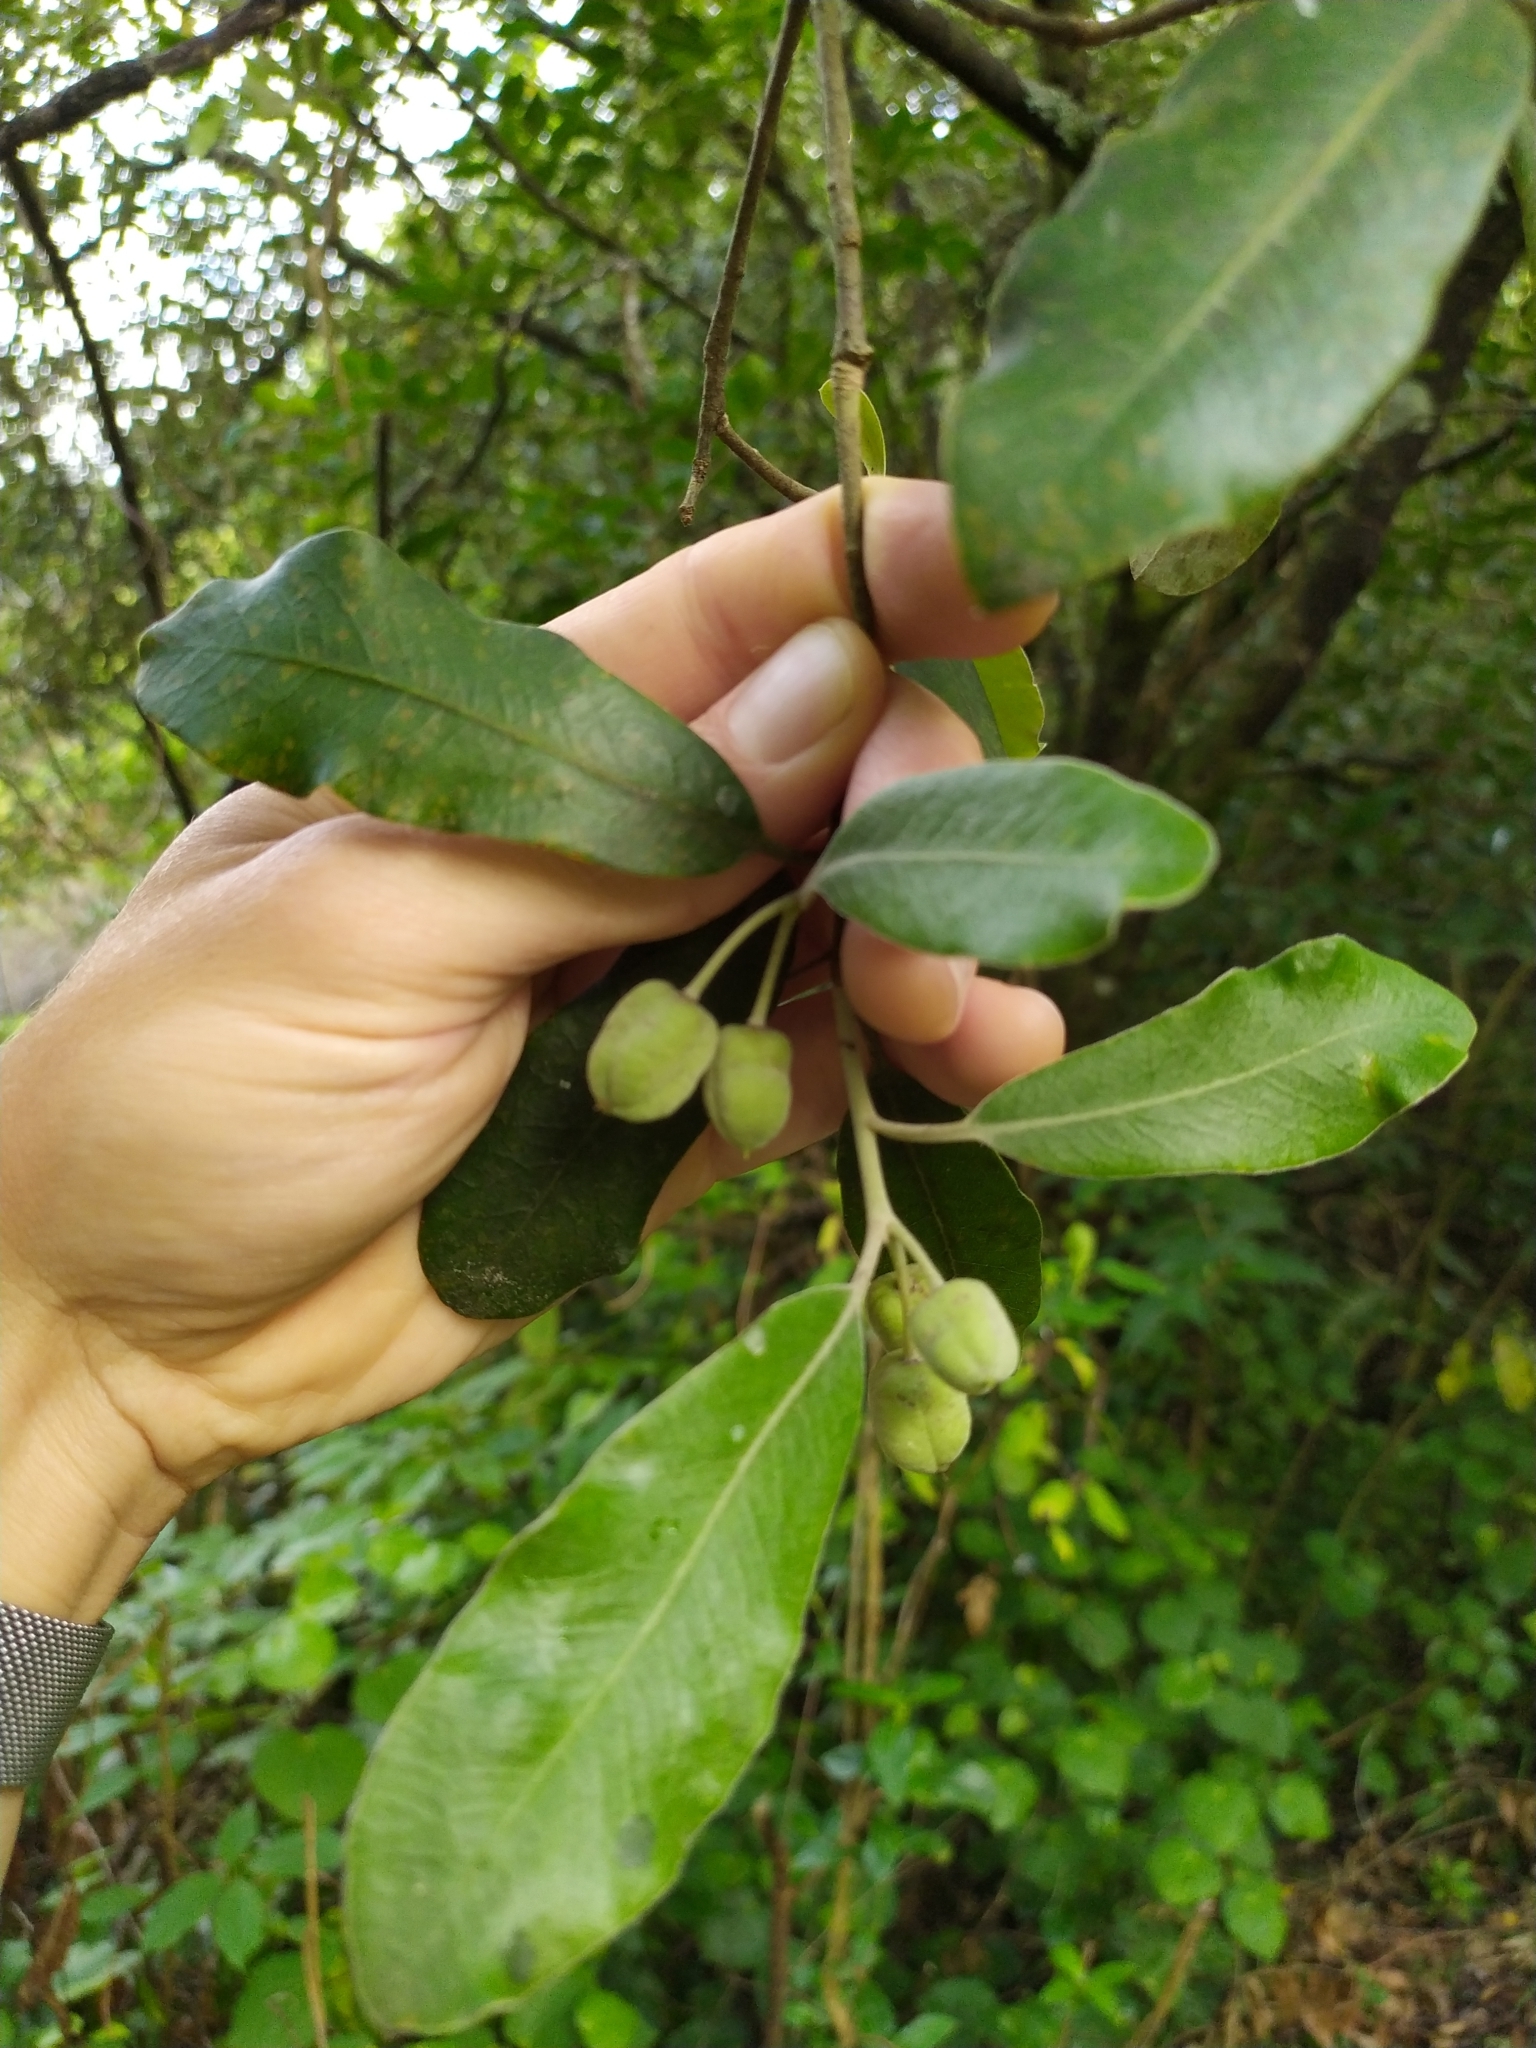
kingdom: Plantae
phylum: Tracheophyta
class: Magnoliopsida
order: Apiales
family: Pittosporaceae
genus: Pittosporum
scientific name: Pittosporum ralphii
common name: Ralph's desertwillow
